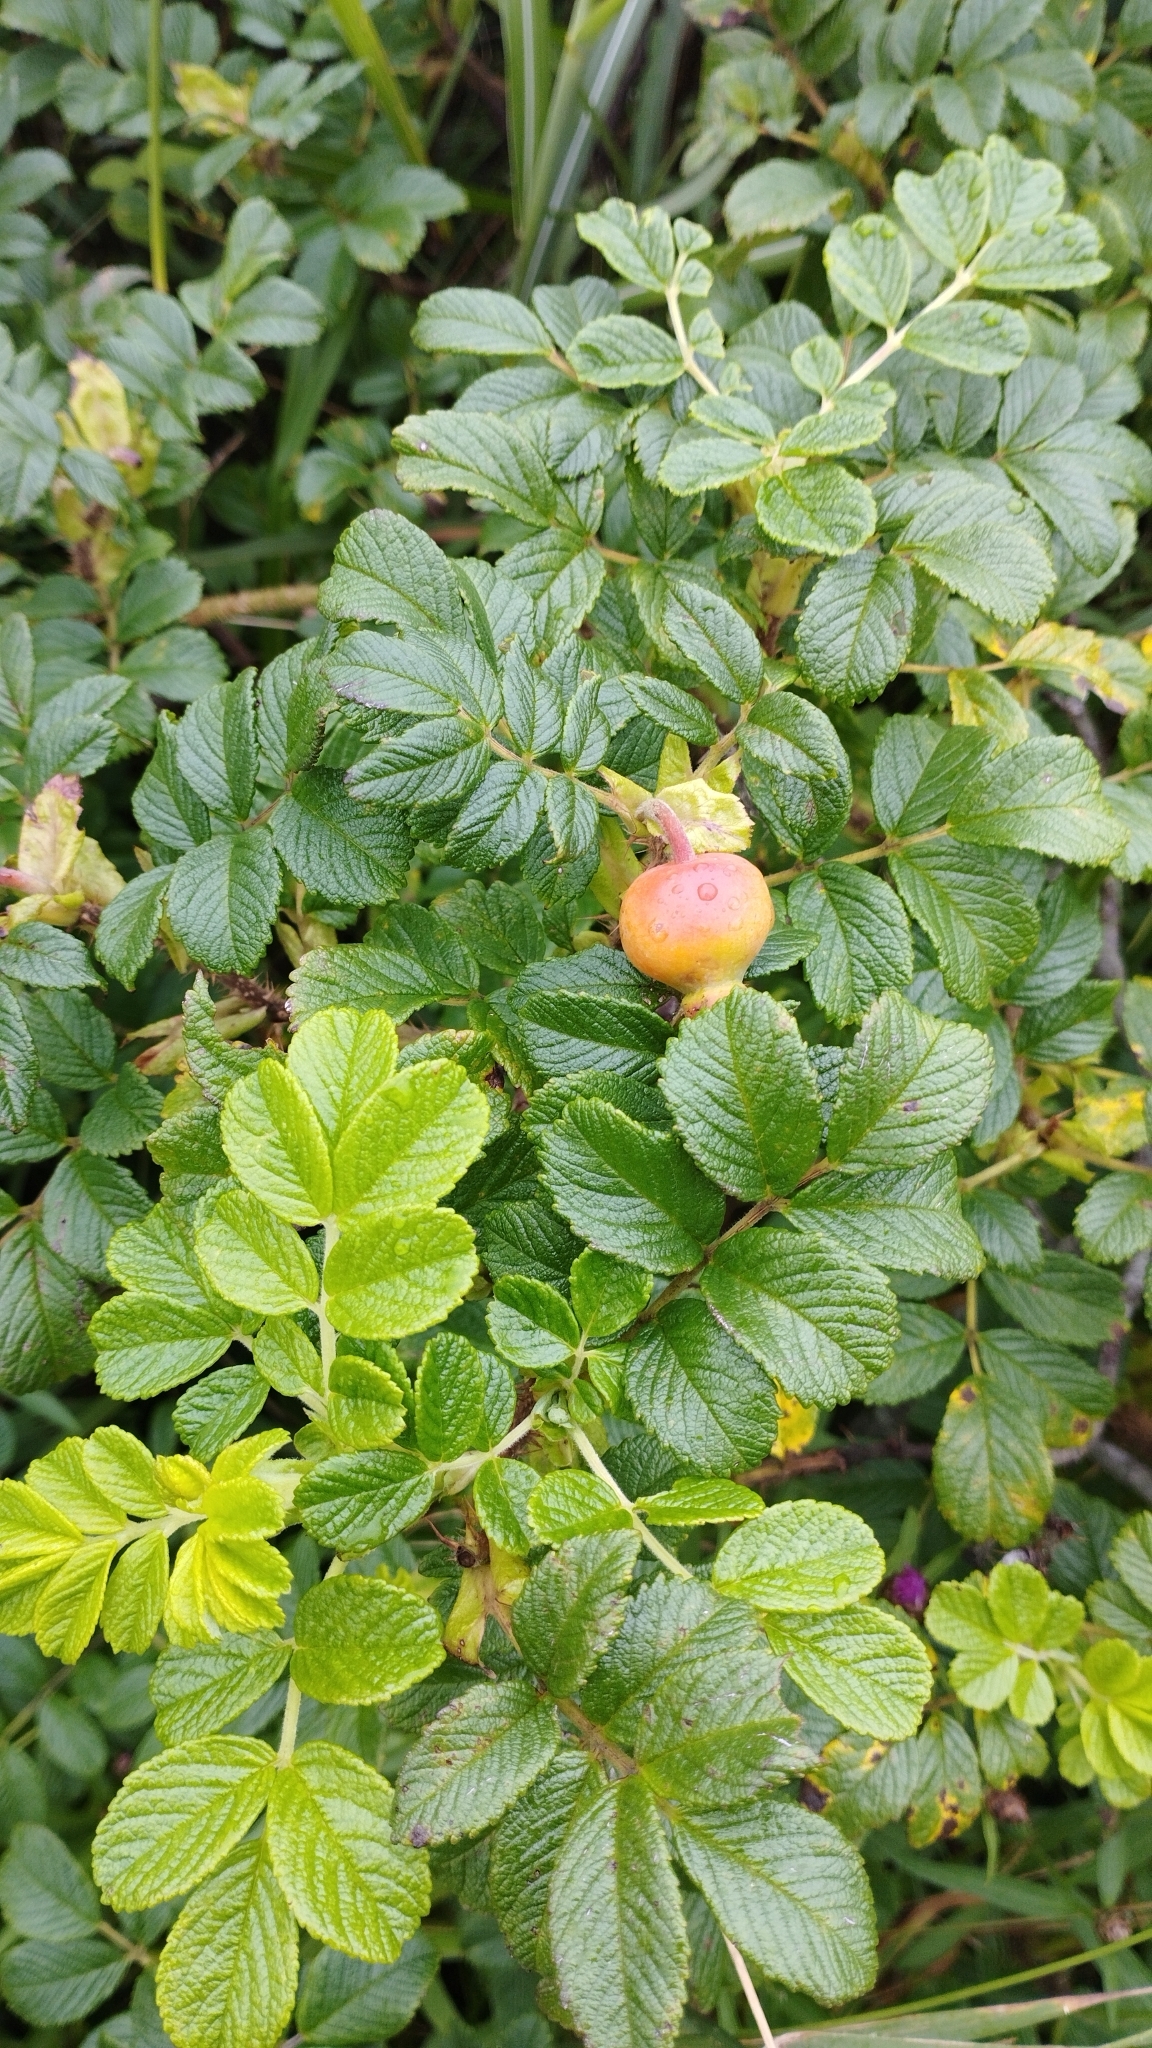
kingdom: Plantae
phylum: Tracheophyta
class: Magnoliopsida
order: Rosales
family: Rosaceae
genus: Rosa
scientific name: Rosa rugosa
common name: Japanese rose
